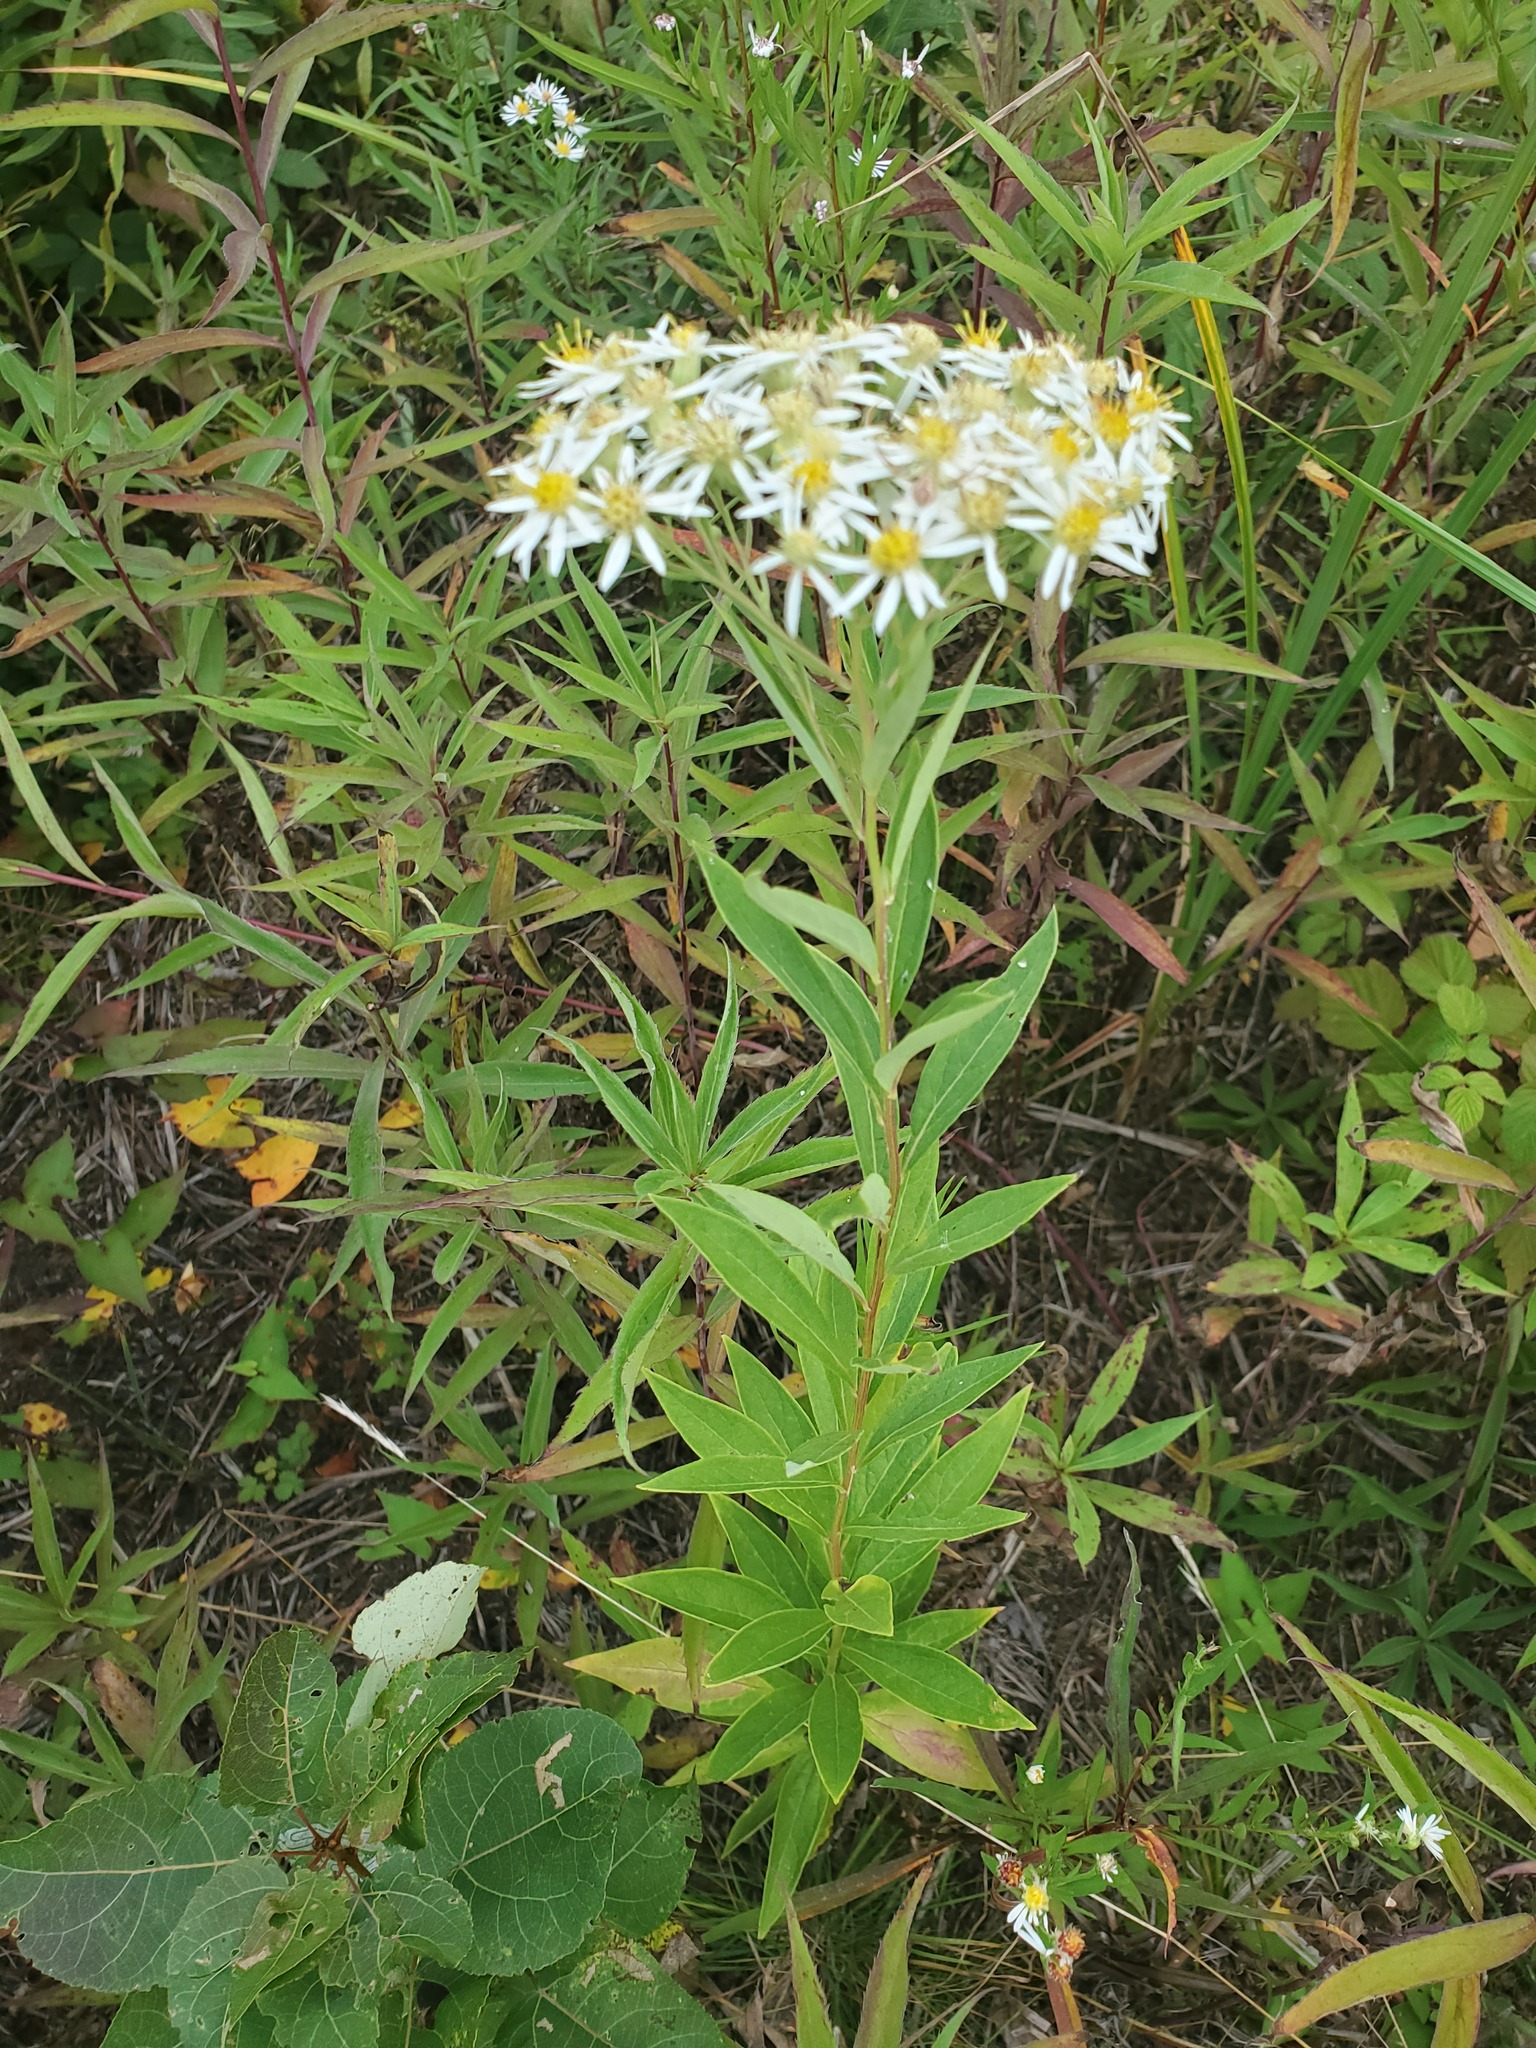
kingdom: Plantae
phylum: Tracheophyta
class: Magnoliopsida
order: Asterales
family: Asteraceae
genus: Doellingeria
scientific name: Doellingeria umbellata
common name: Flat-top white aster
